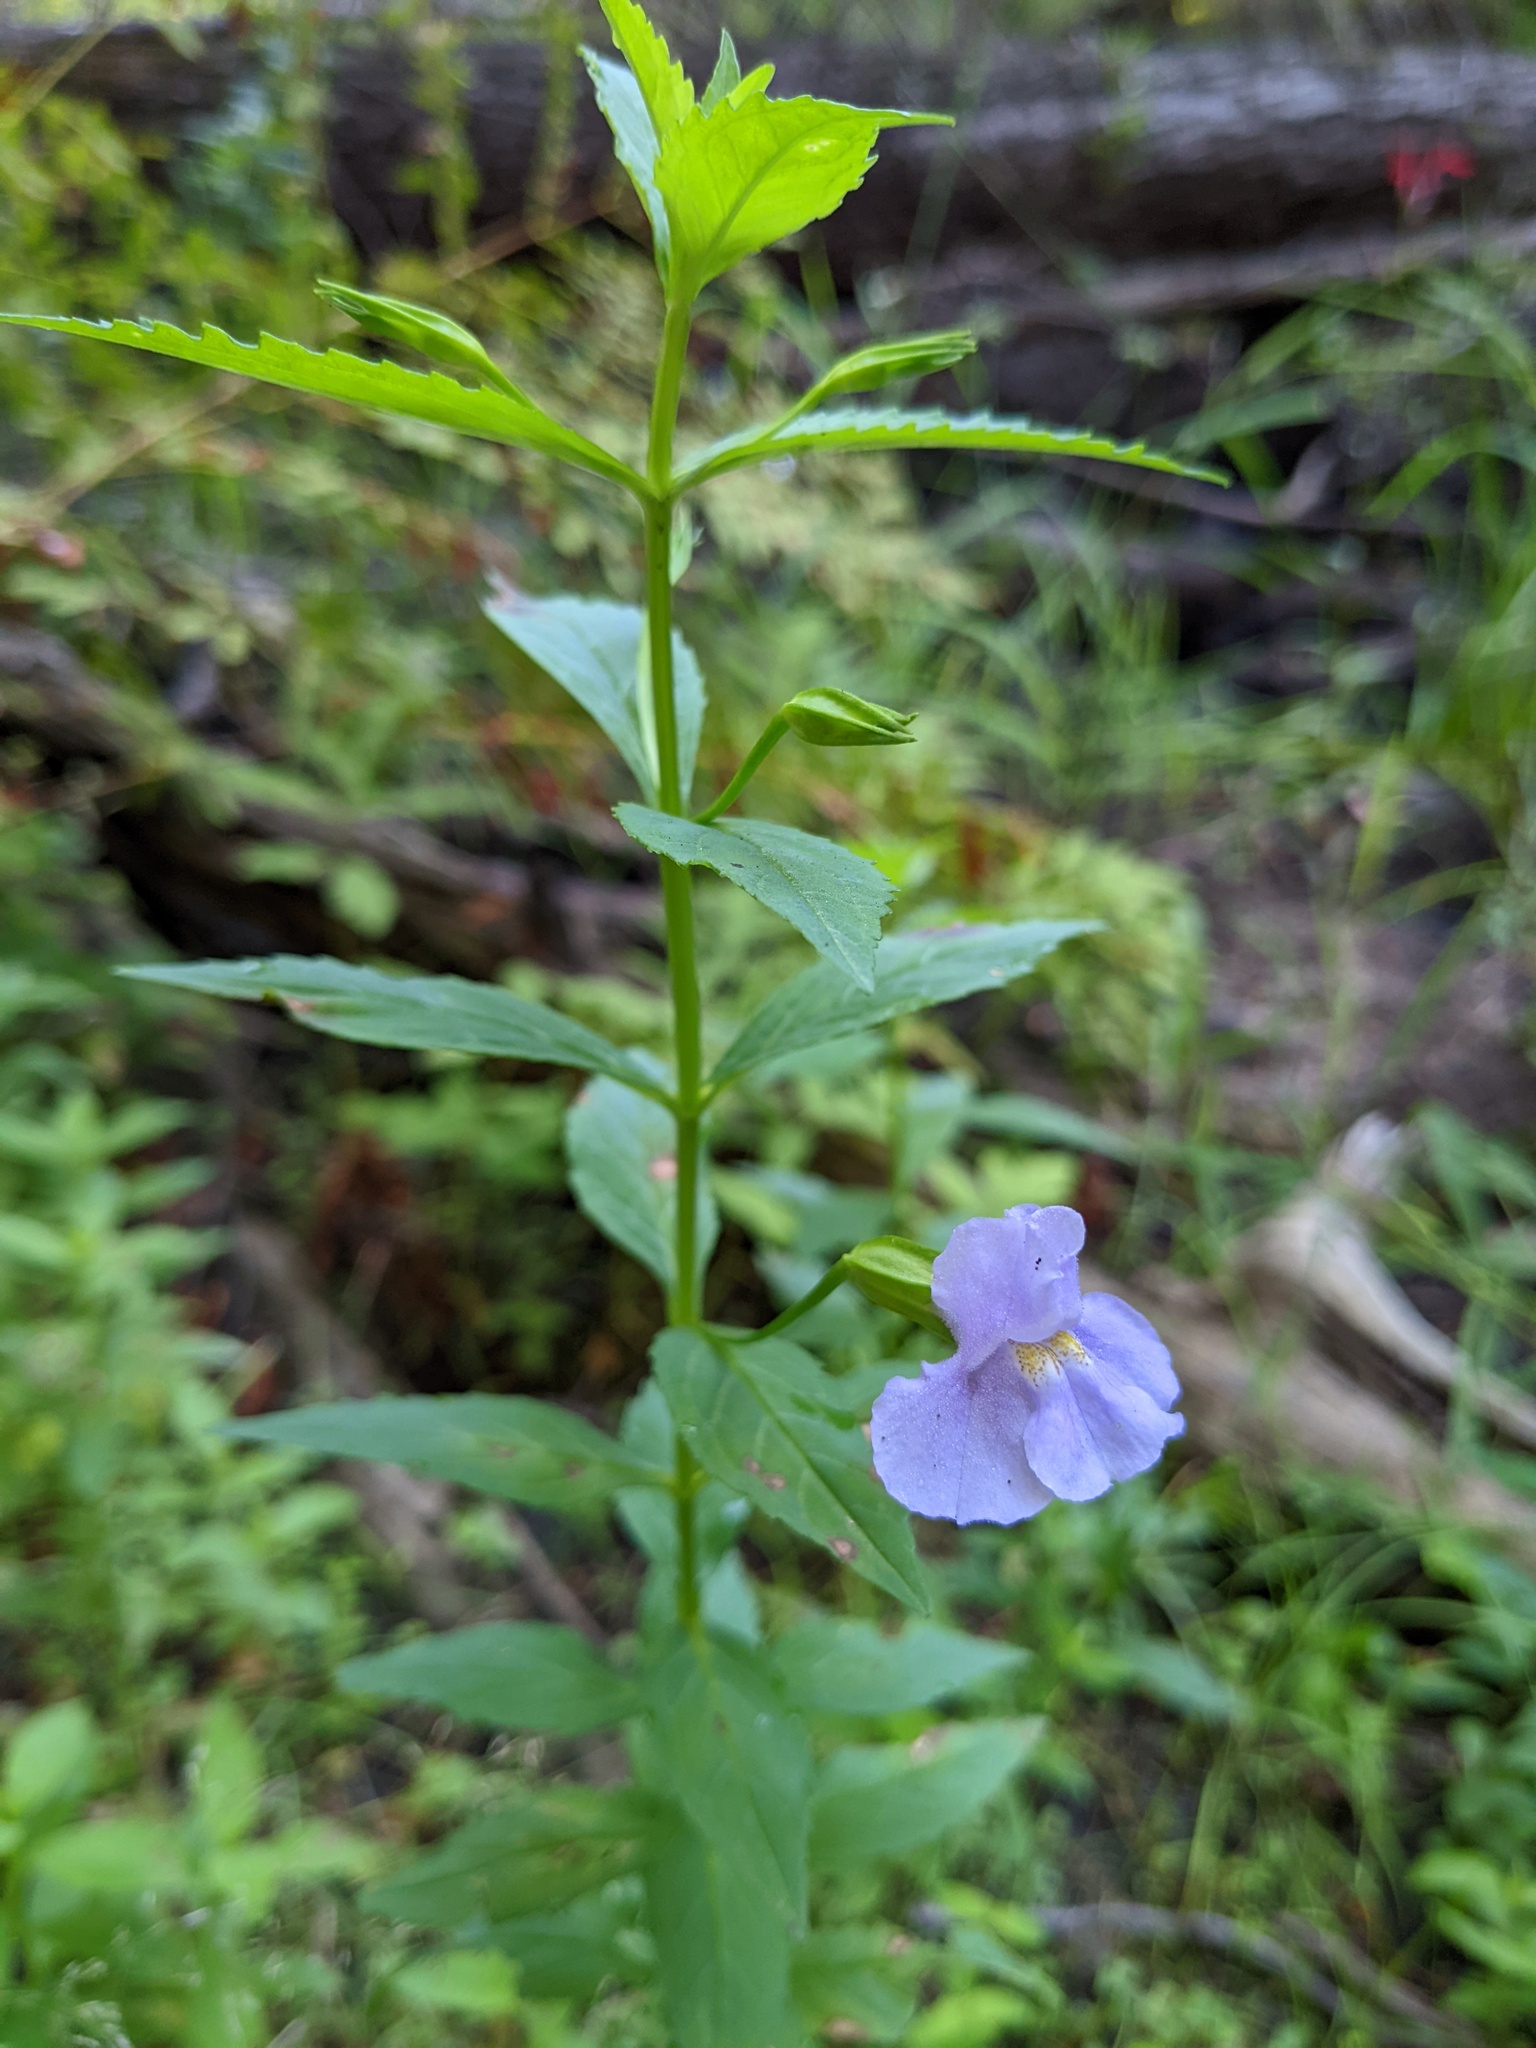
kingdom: Plantae
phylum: Tracheophyta
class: Magnoliopsida
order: Lamiales
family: Phrymaceae
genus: Mimulus
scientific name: Mimulus ringens
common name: Allegheny monkeyflower
